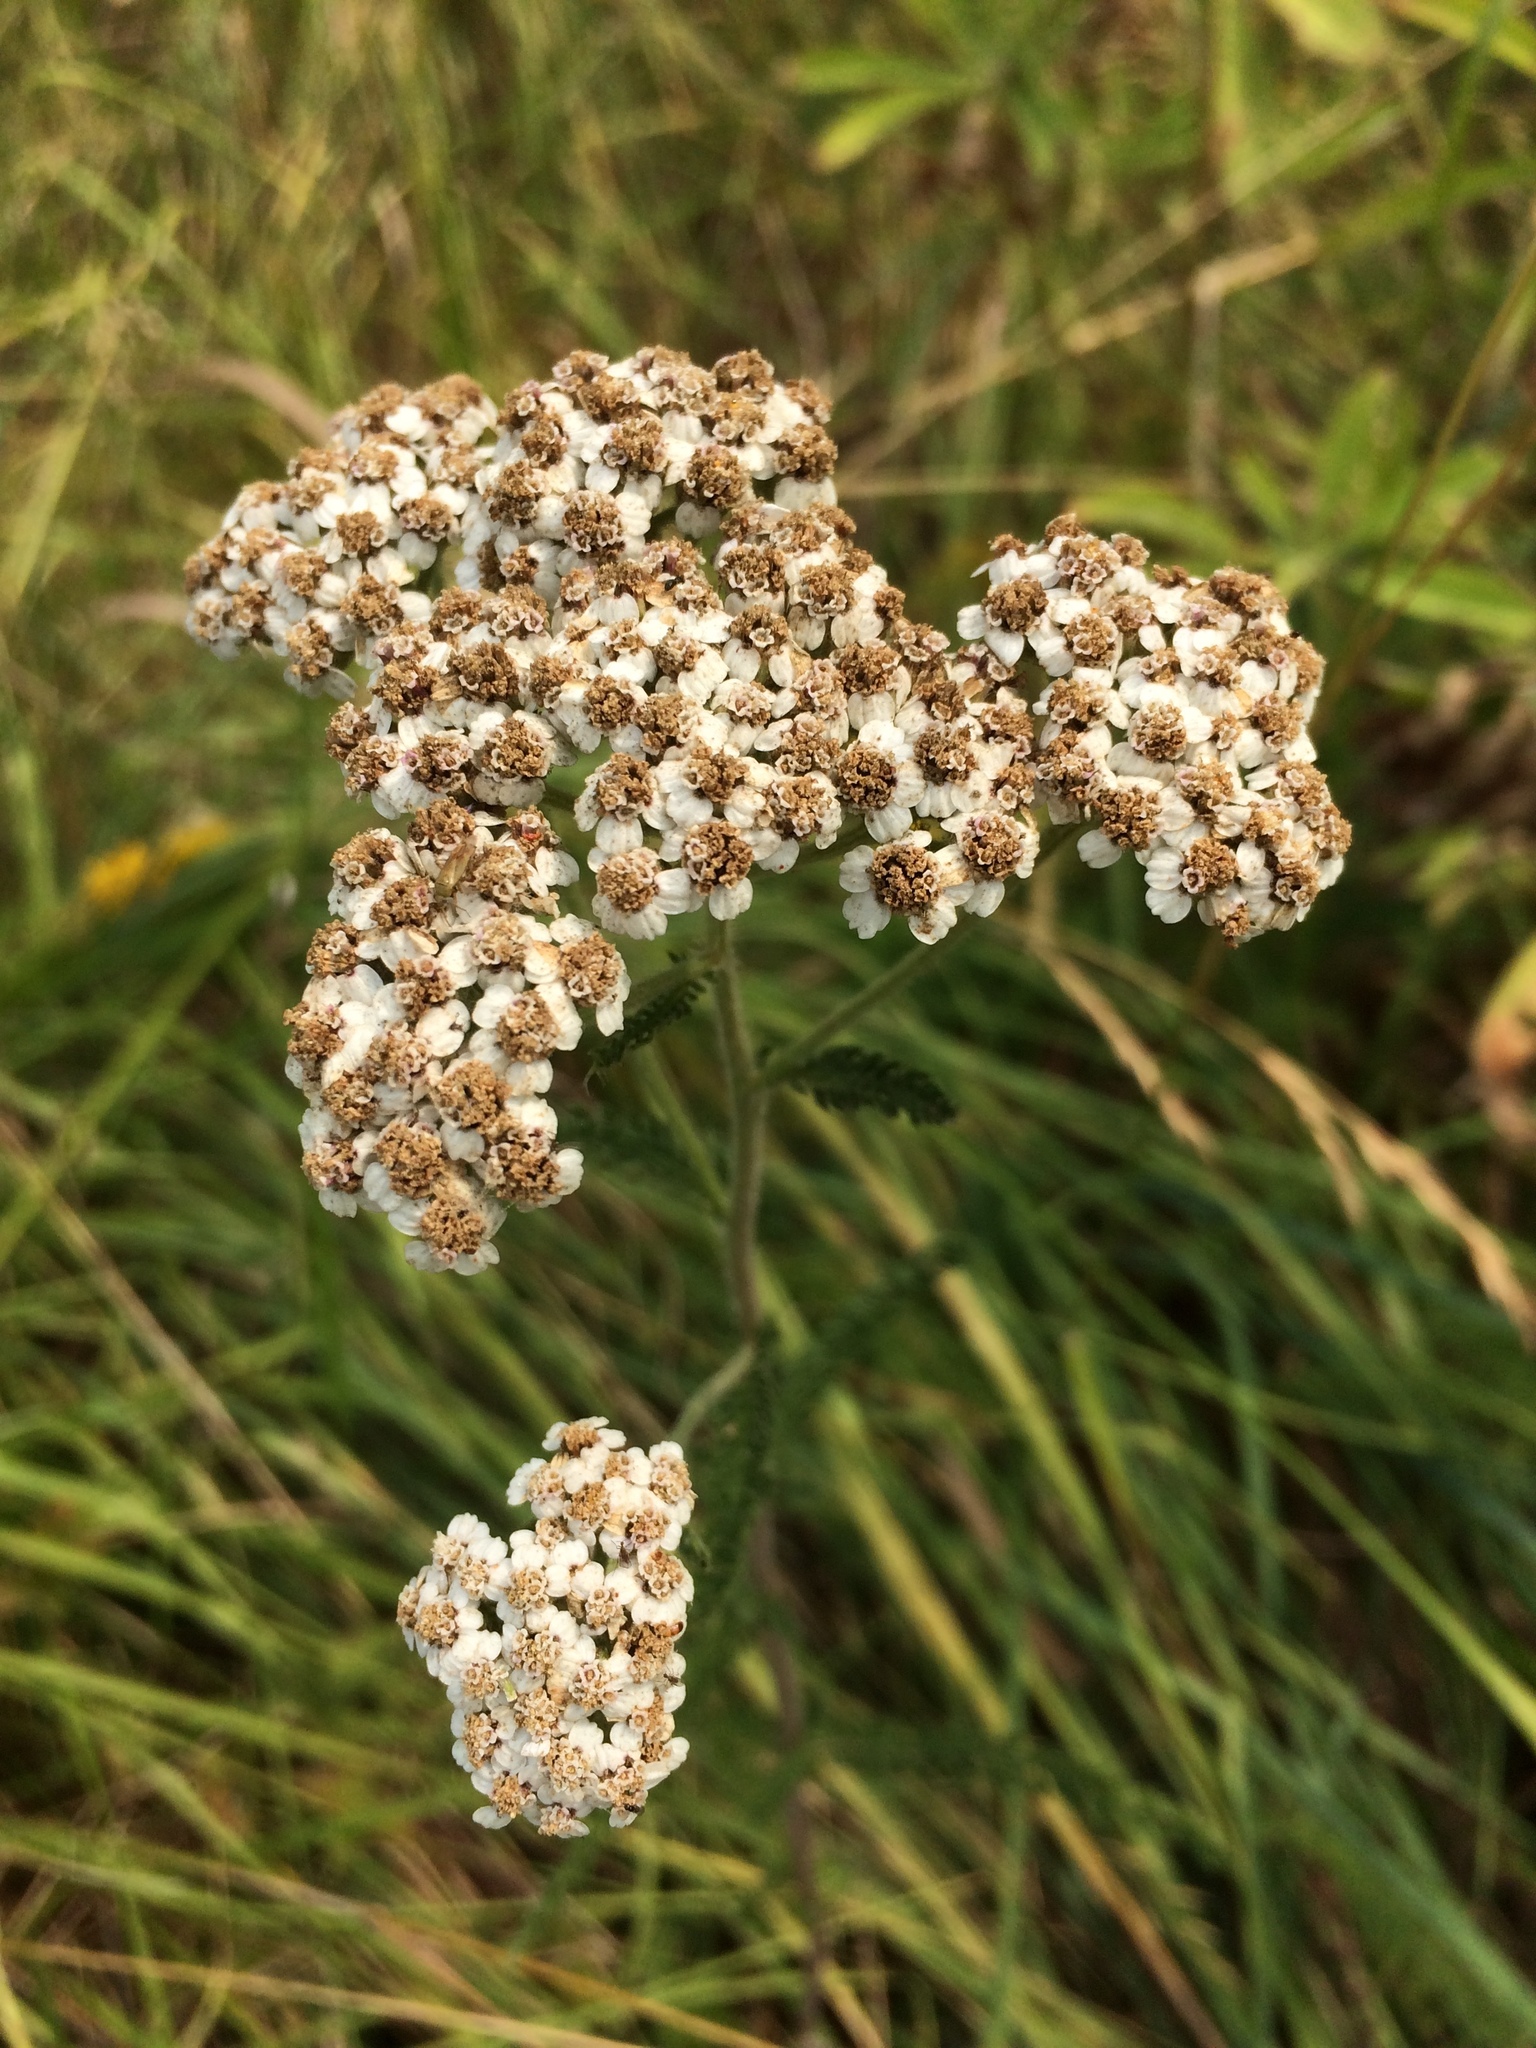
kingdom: Plantae
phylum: Tracheophyta
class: Magnoliopsida
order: Asterales
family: Asteraceae
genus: Achillea
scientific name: Achillea millefolium
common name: Yarrow
